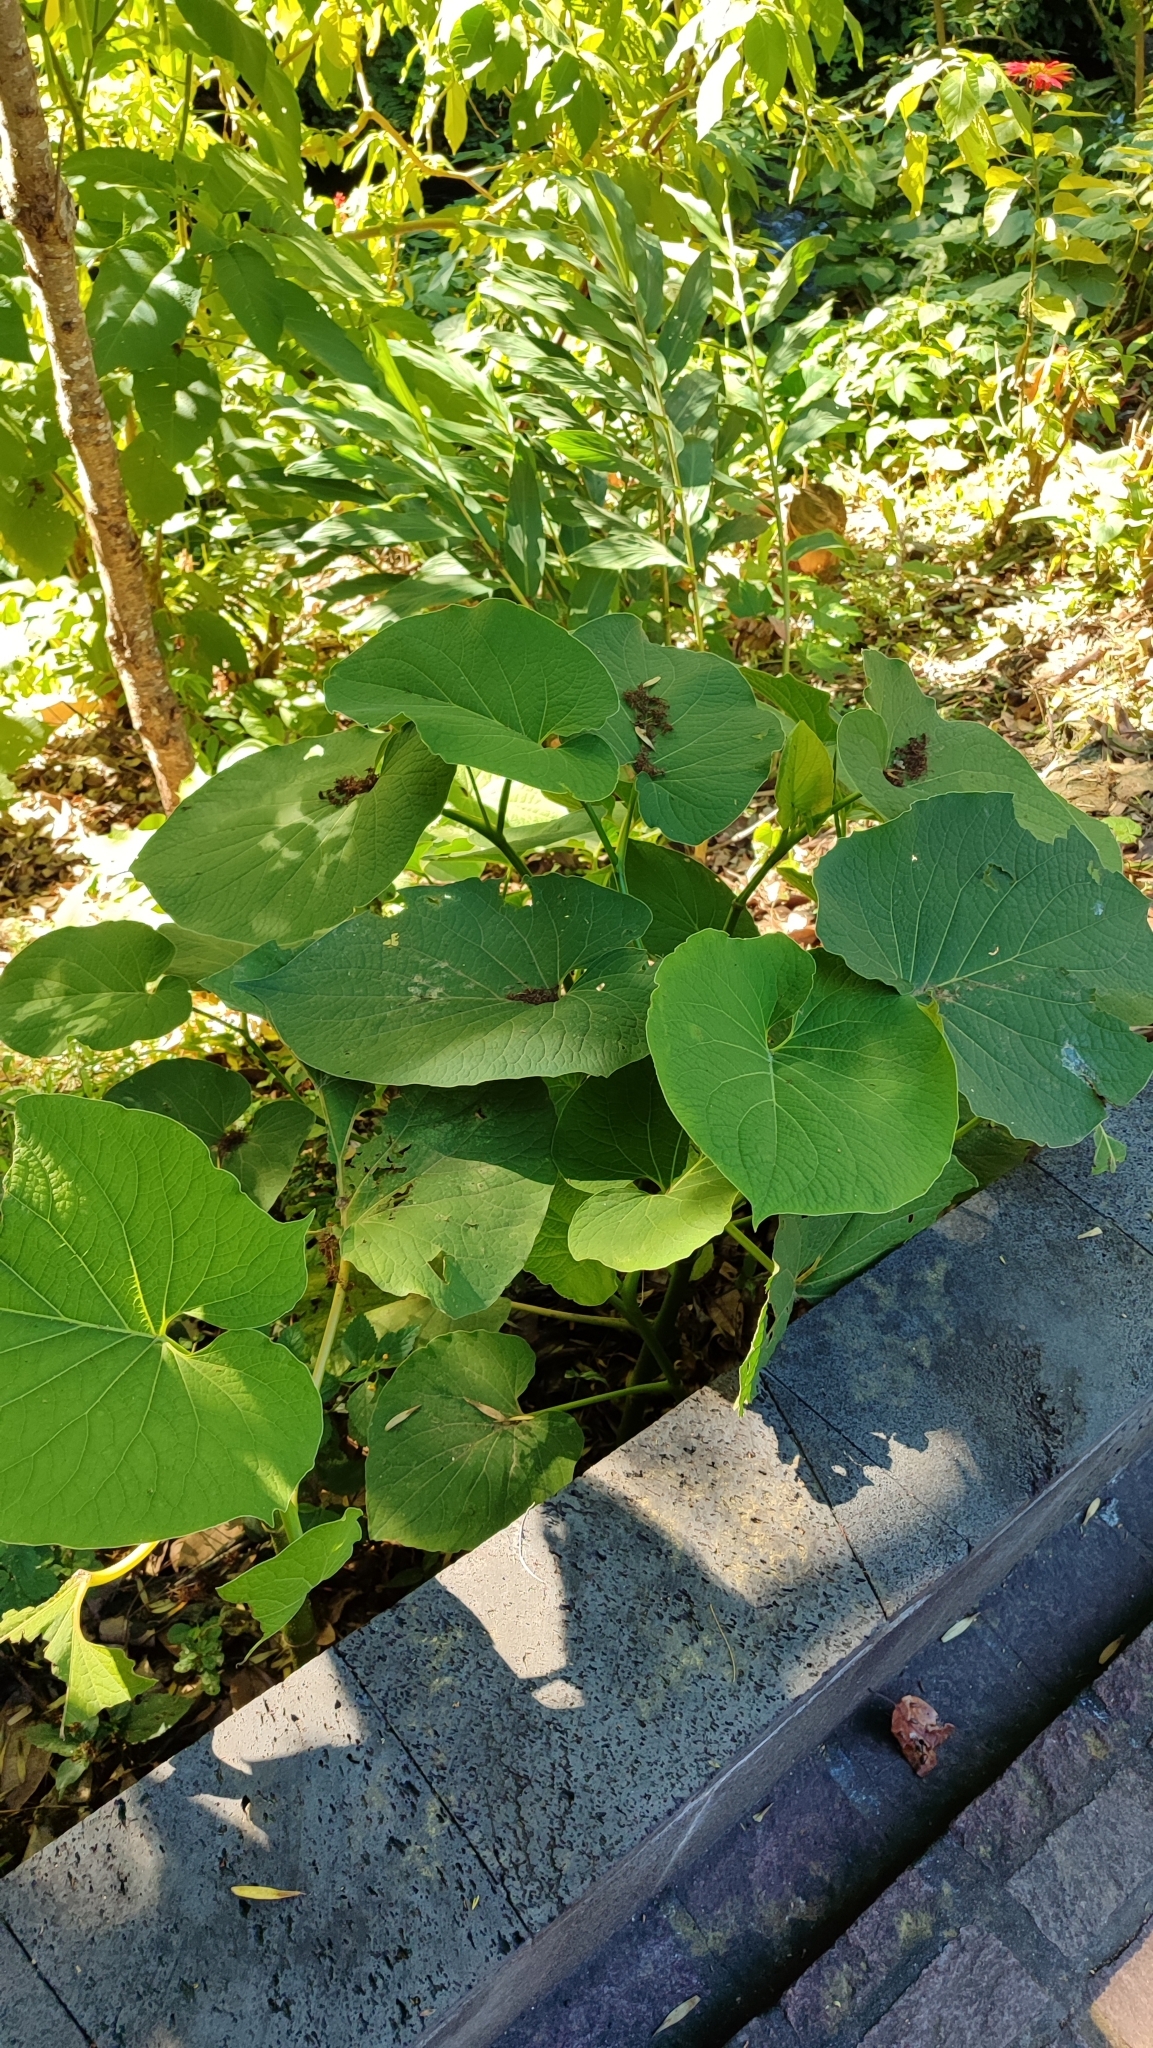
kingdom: Plantae
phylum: Tracheophyta
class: Magnoliopsida
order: Piperales
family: Piperaceae
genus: Piper
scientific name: Piper auritum
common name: Vera cruz pepper
